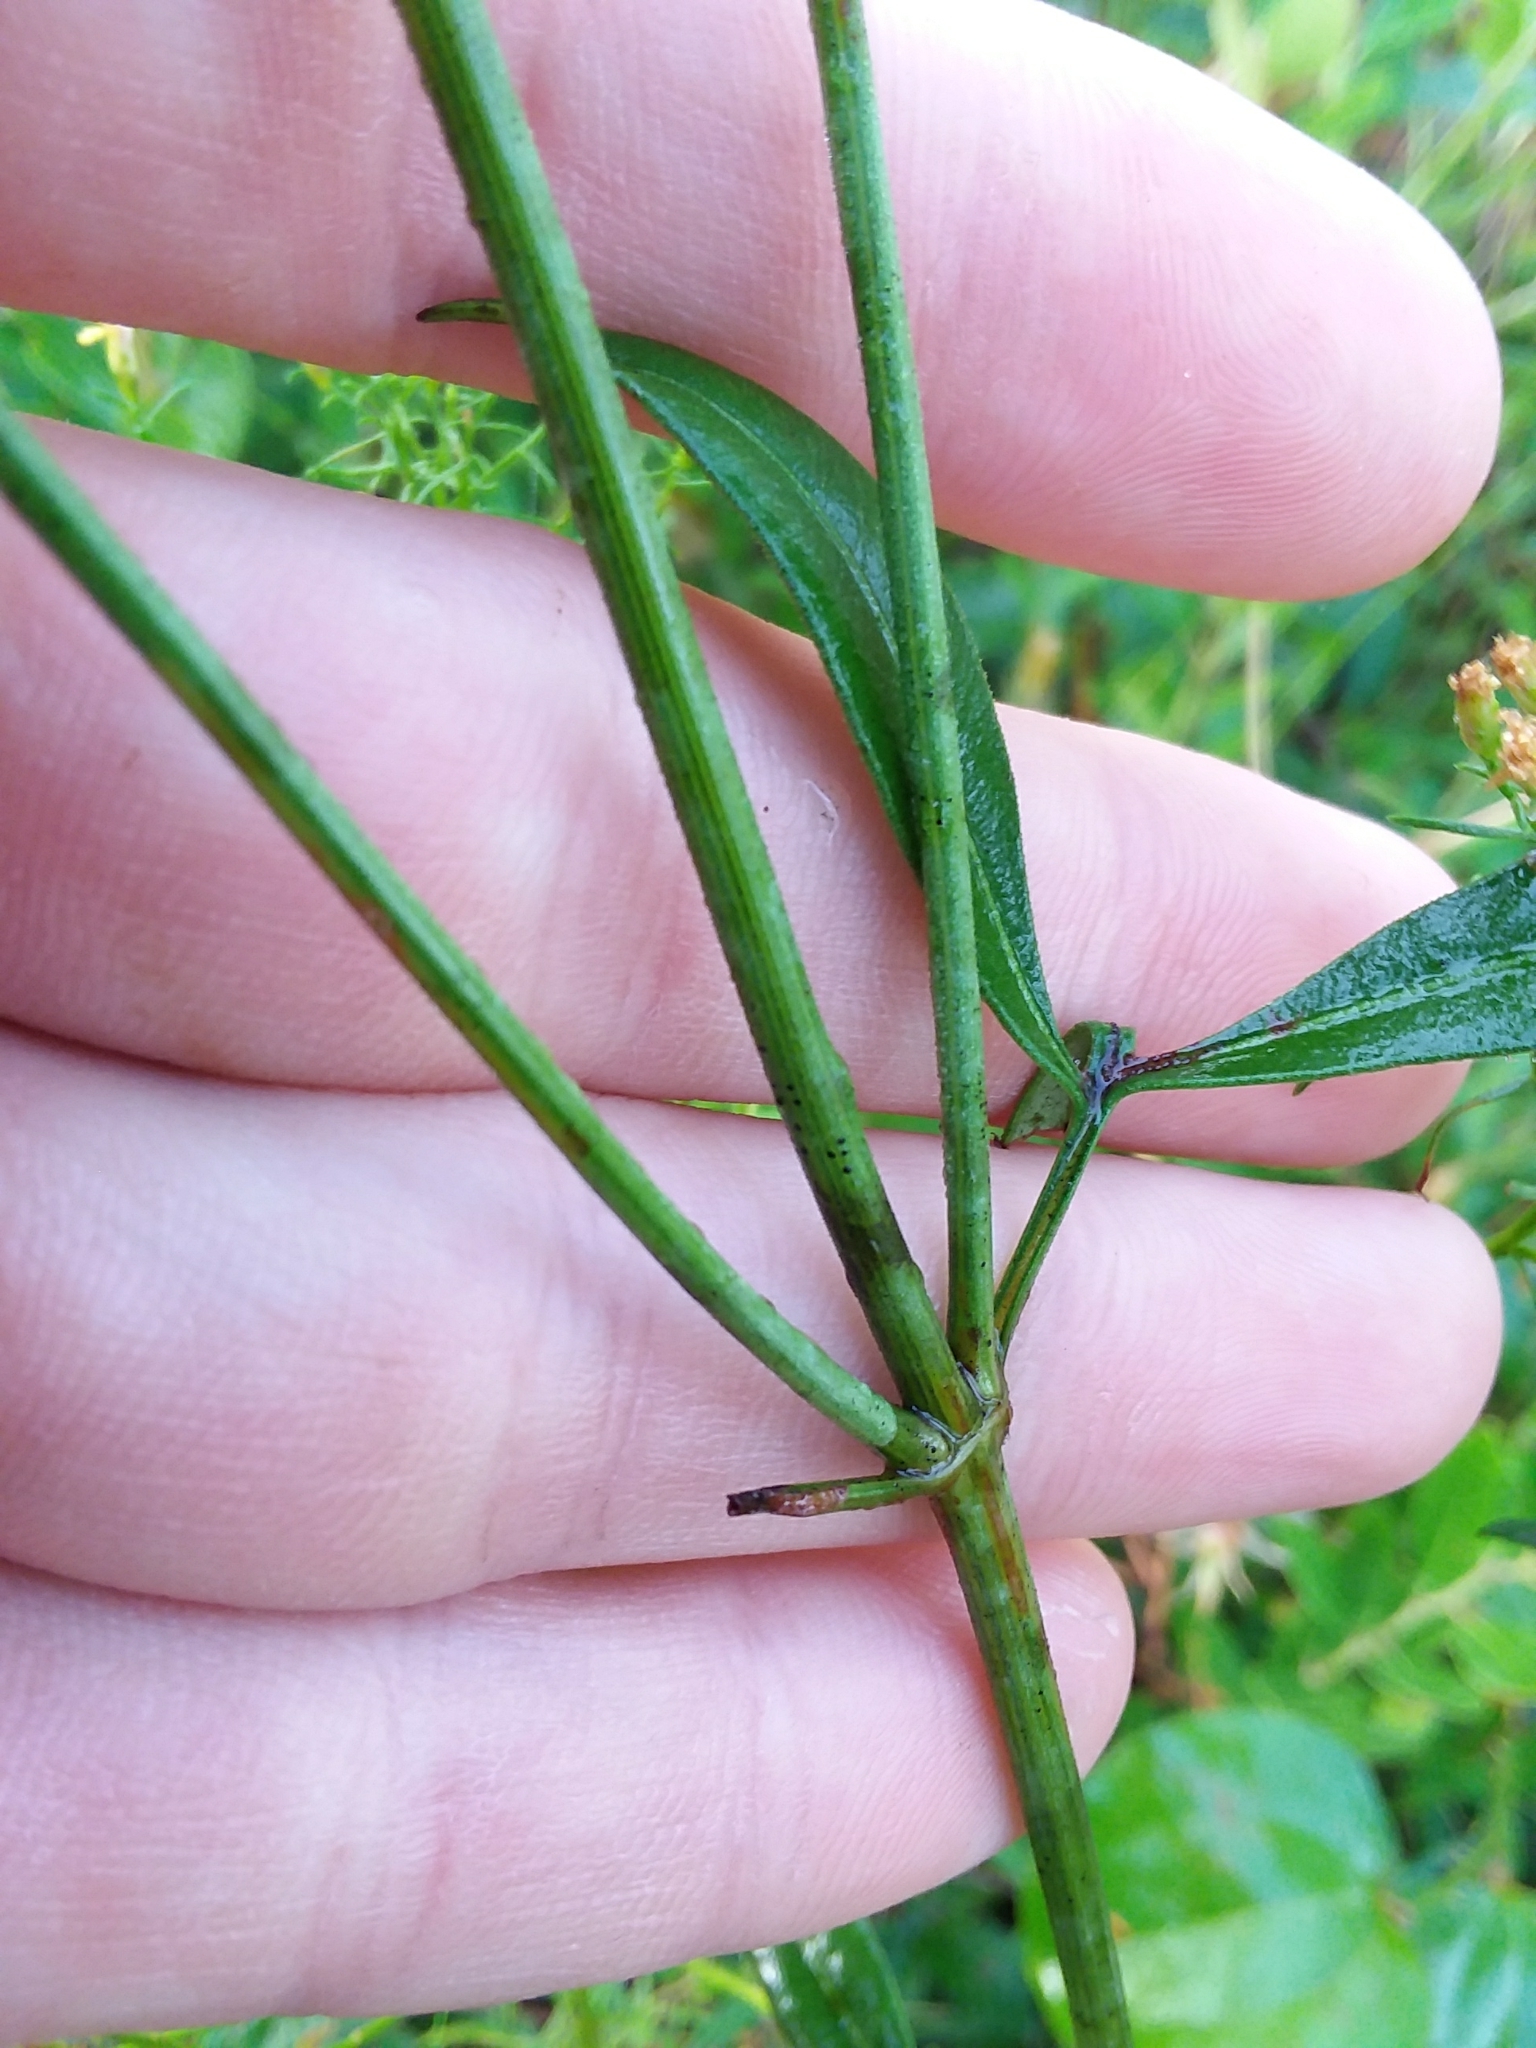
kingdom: Plantae
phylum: Tracheophyta
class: Magnoliopsida
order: Asterales
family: Asteraceae
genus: Coreopsis
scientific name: Coreopsis tripteris
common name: Tall coreopsis
